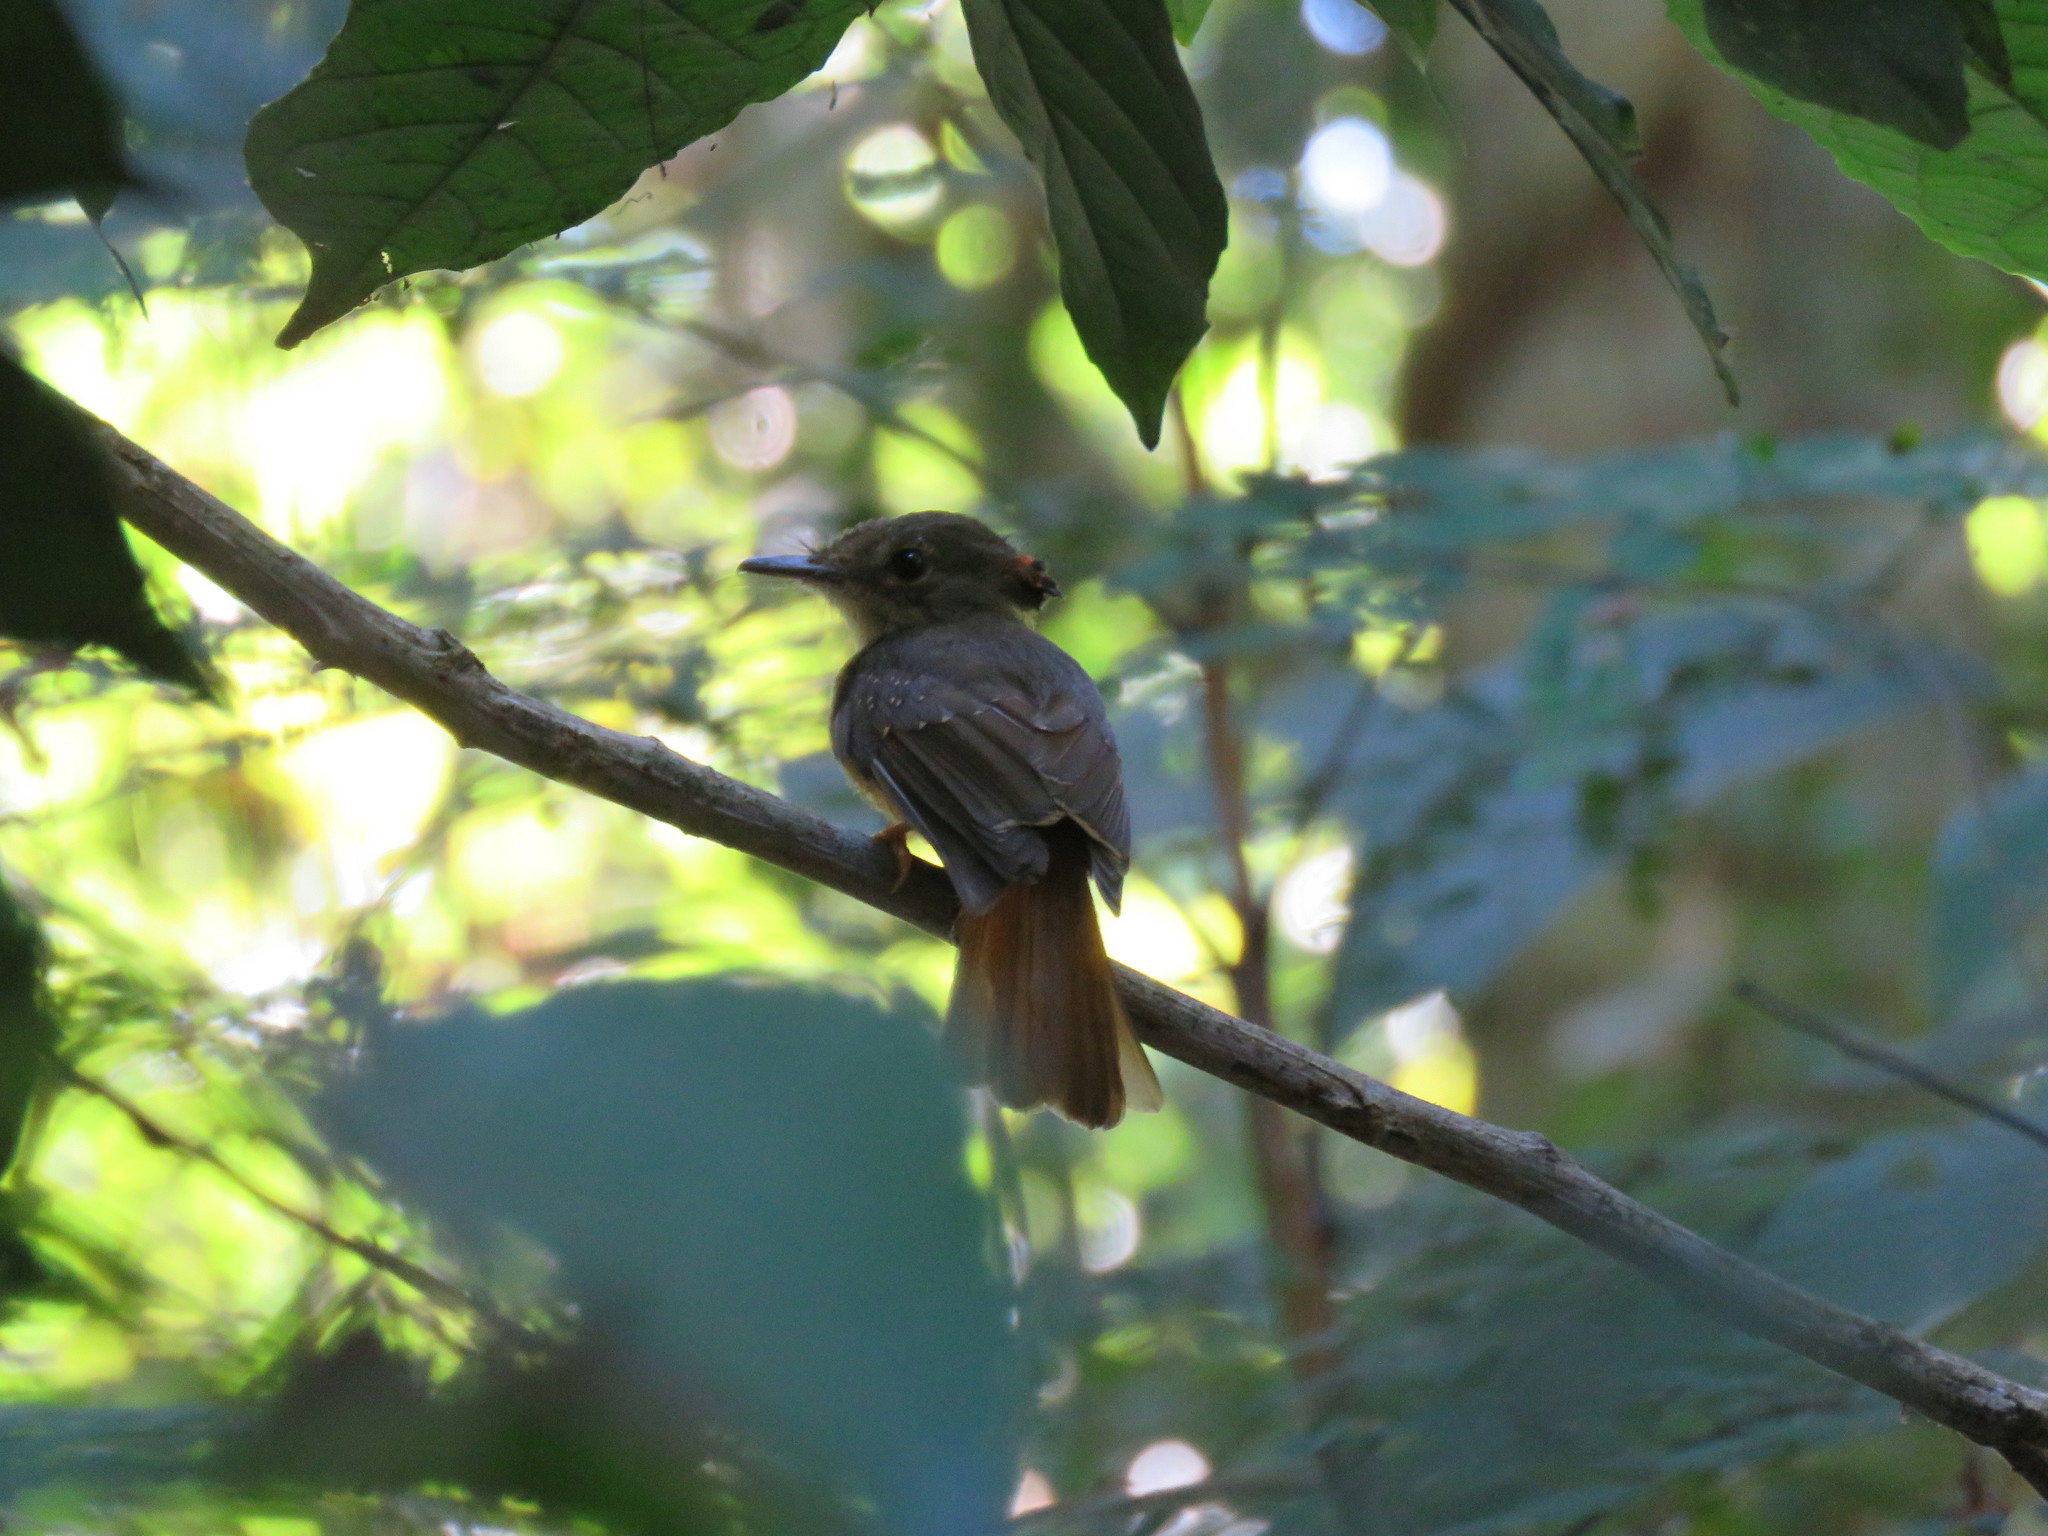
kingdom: Animalia
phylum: Chordata
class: Aves
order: Passeriformes
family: Tyrannidae
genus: Onychorhynchus
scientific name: Onychorhynchus coronatus
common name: Royal flycatcher
